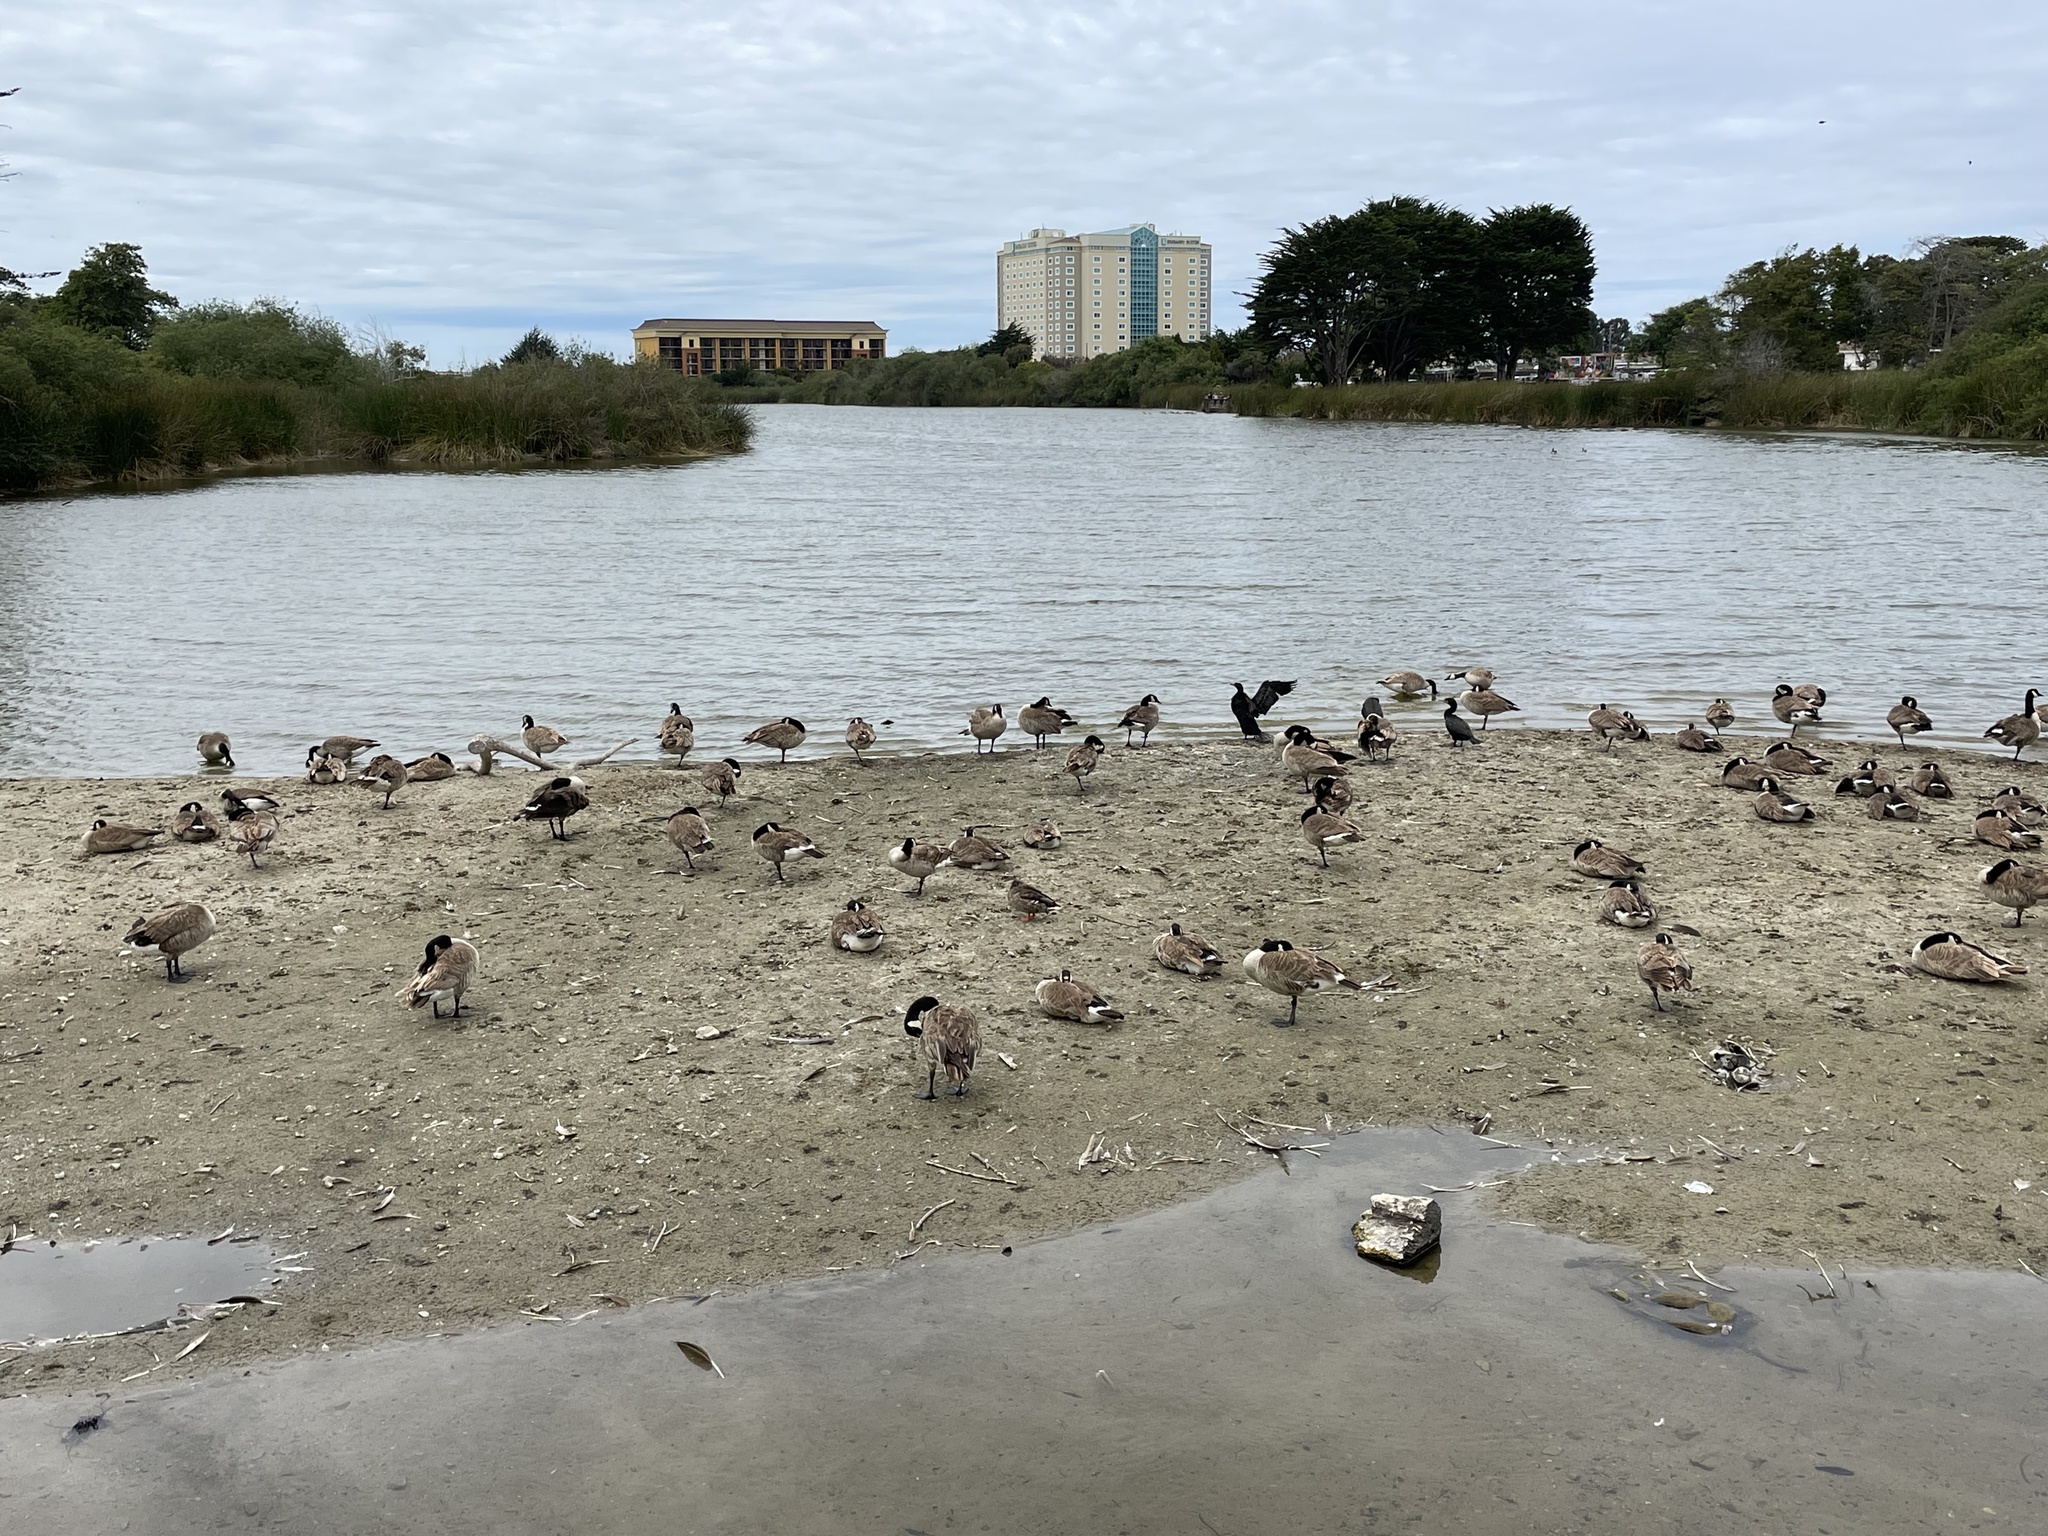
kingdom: Animalia
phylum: Chordata
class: Aves
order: Anseriformes
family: Anatidae
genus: Branta
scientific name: Branta canadensis
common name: Canada goose
